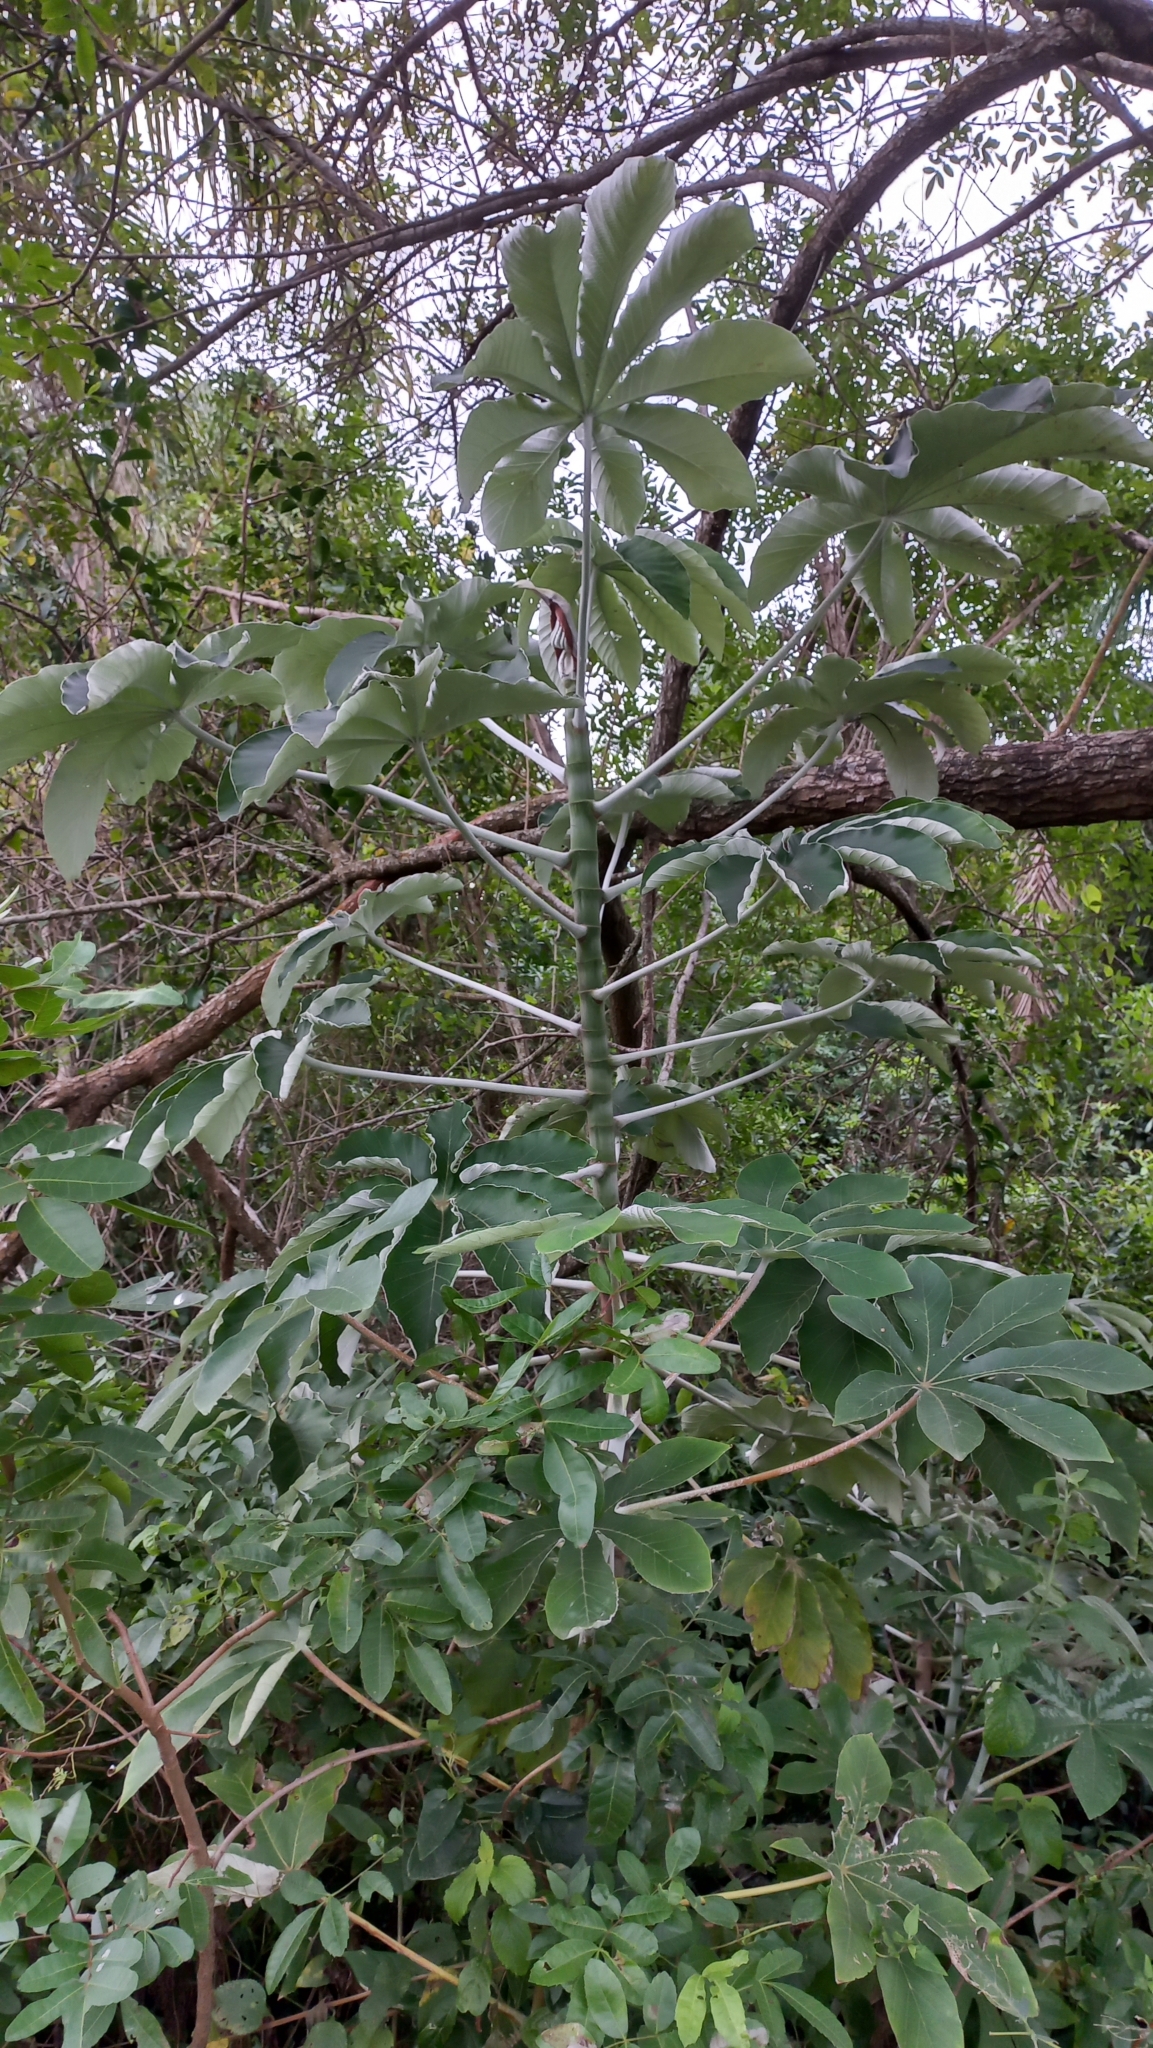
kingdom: Plantae
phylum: Tracheophyta
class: Magnoliopsida
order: Rosales
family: Urticaceae
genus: Cecropia
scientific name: Cecropia pachystachya
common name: Ambay pumpwood
